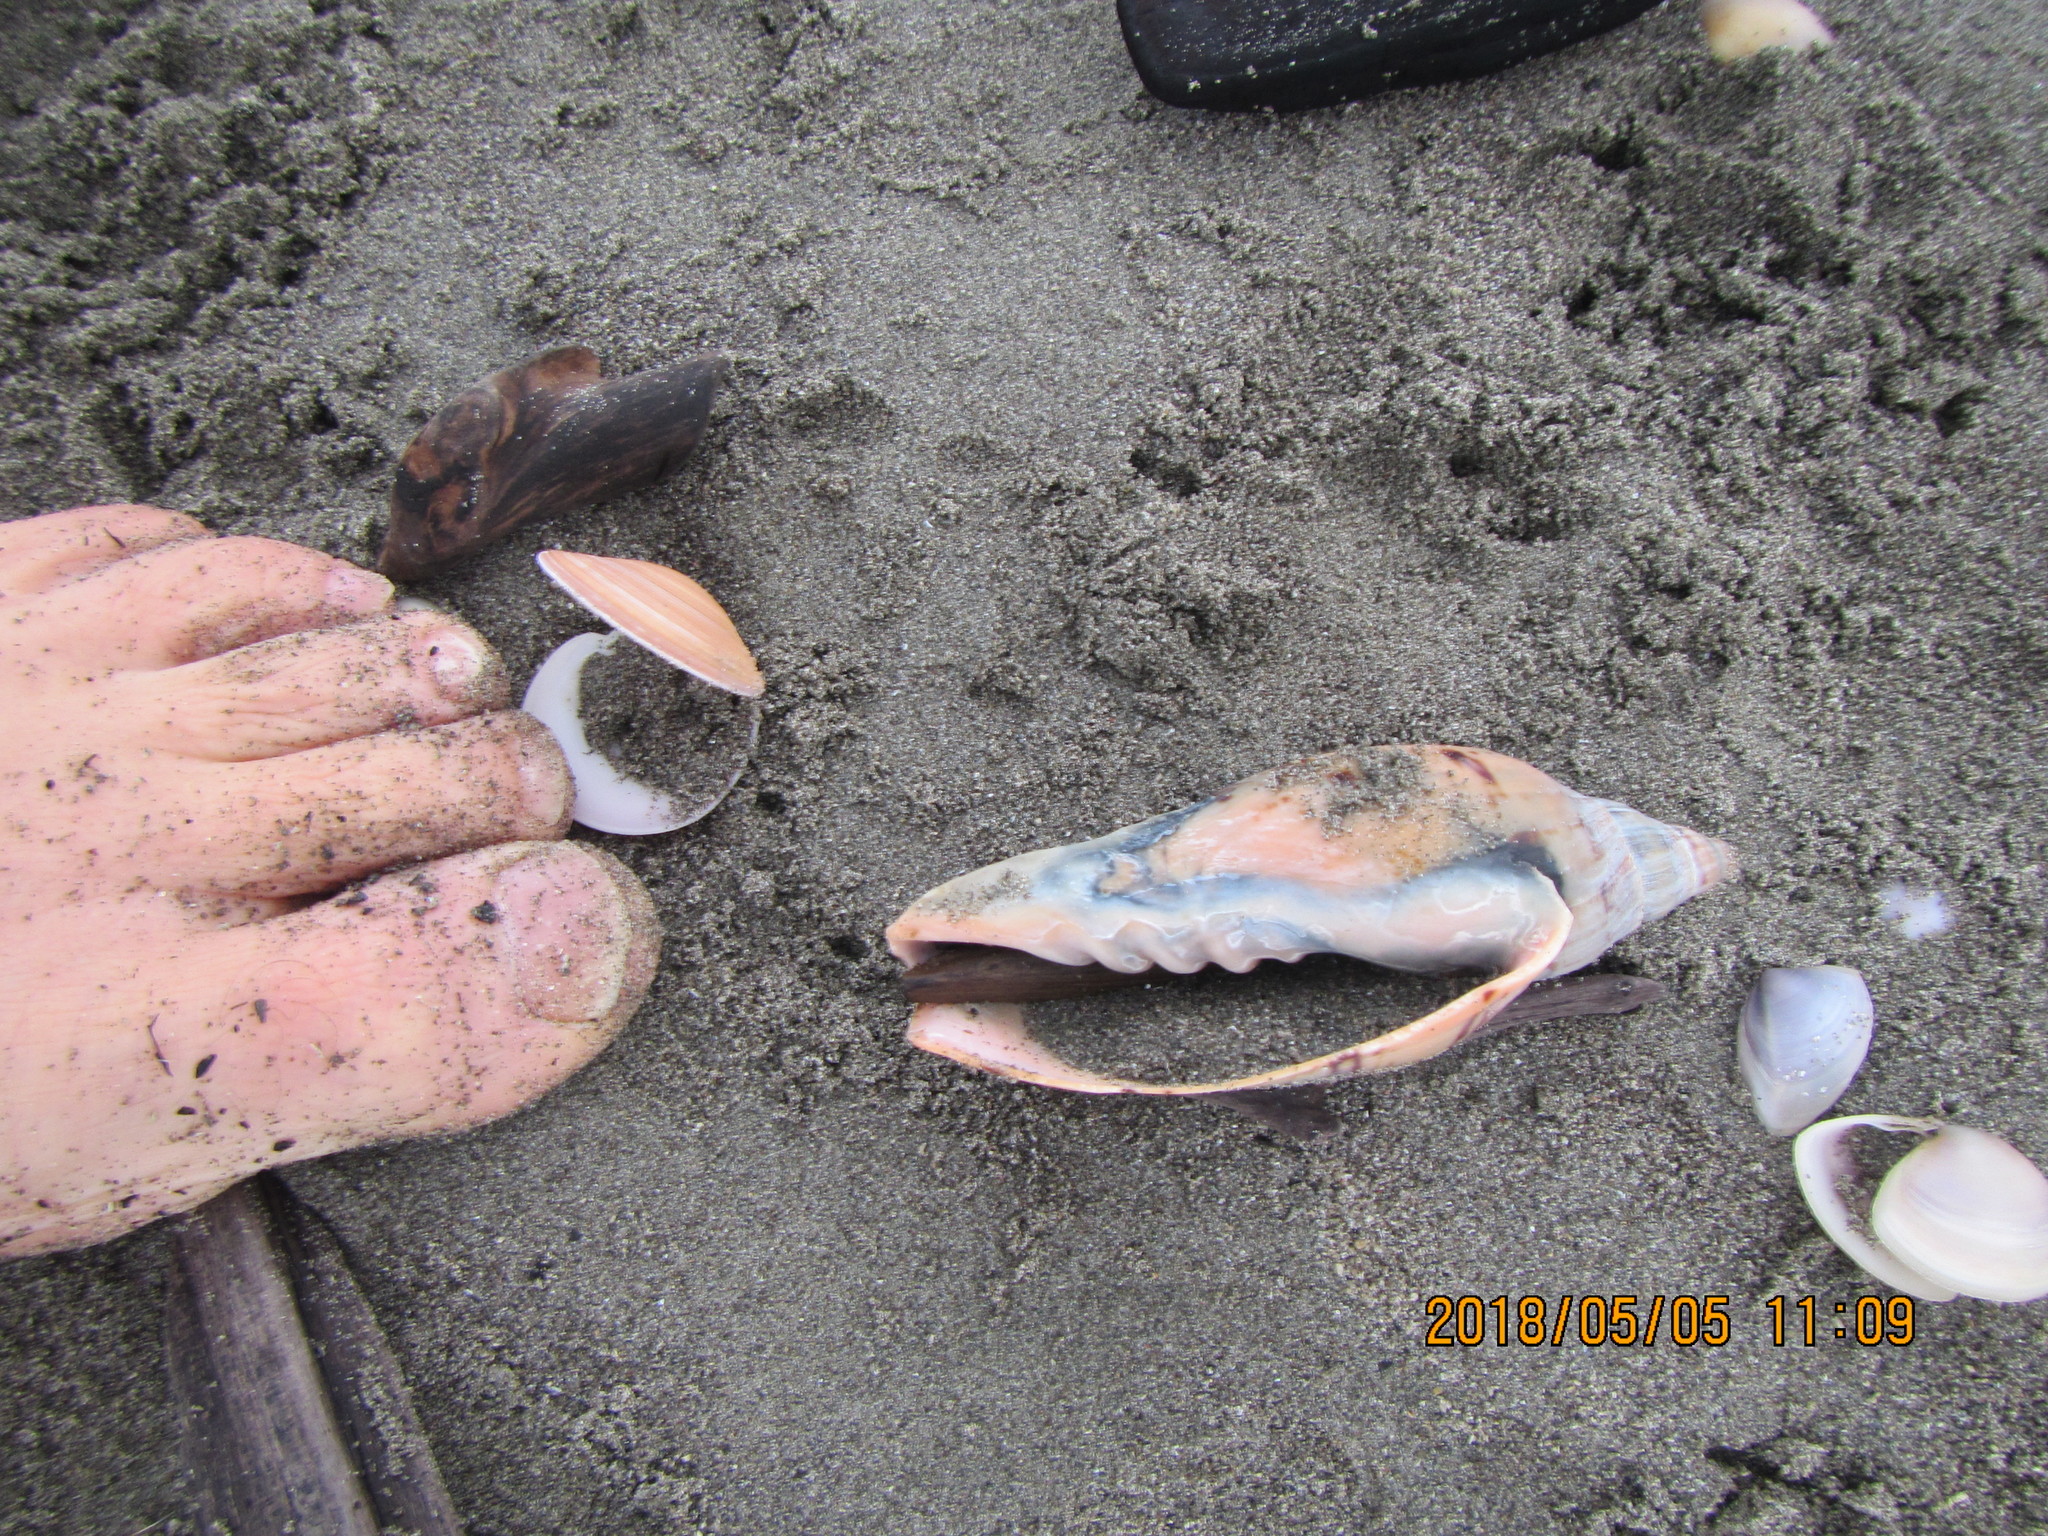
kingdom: Animalia
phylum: Mollusca
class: Gastropoda
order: Neogastropoda
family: Volutidae
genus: Alcithoe
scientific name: Alcithoe arabica
